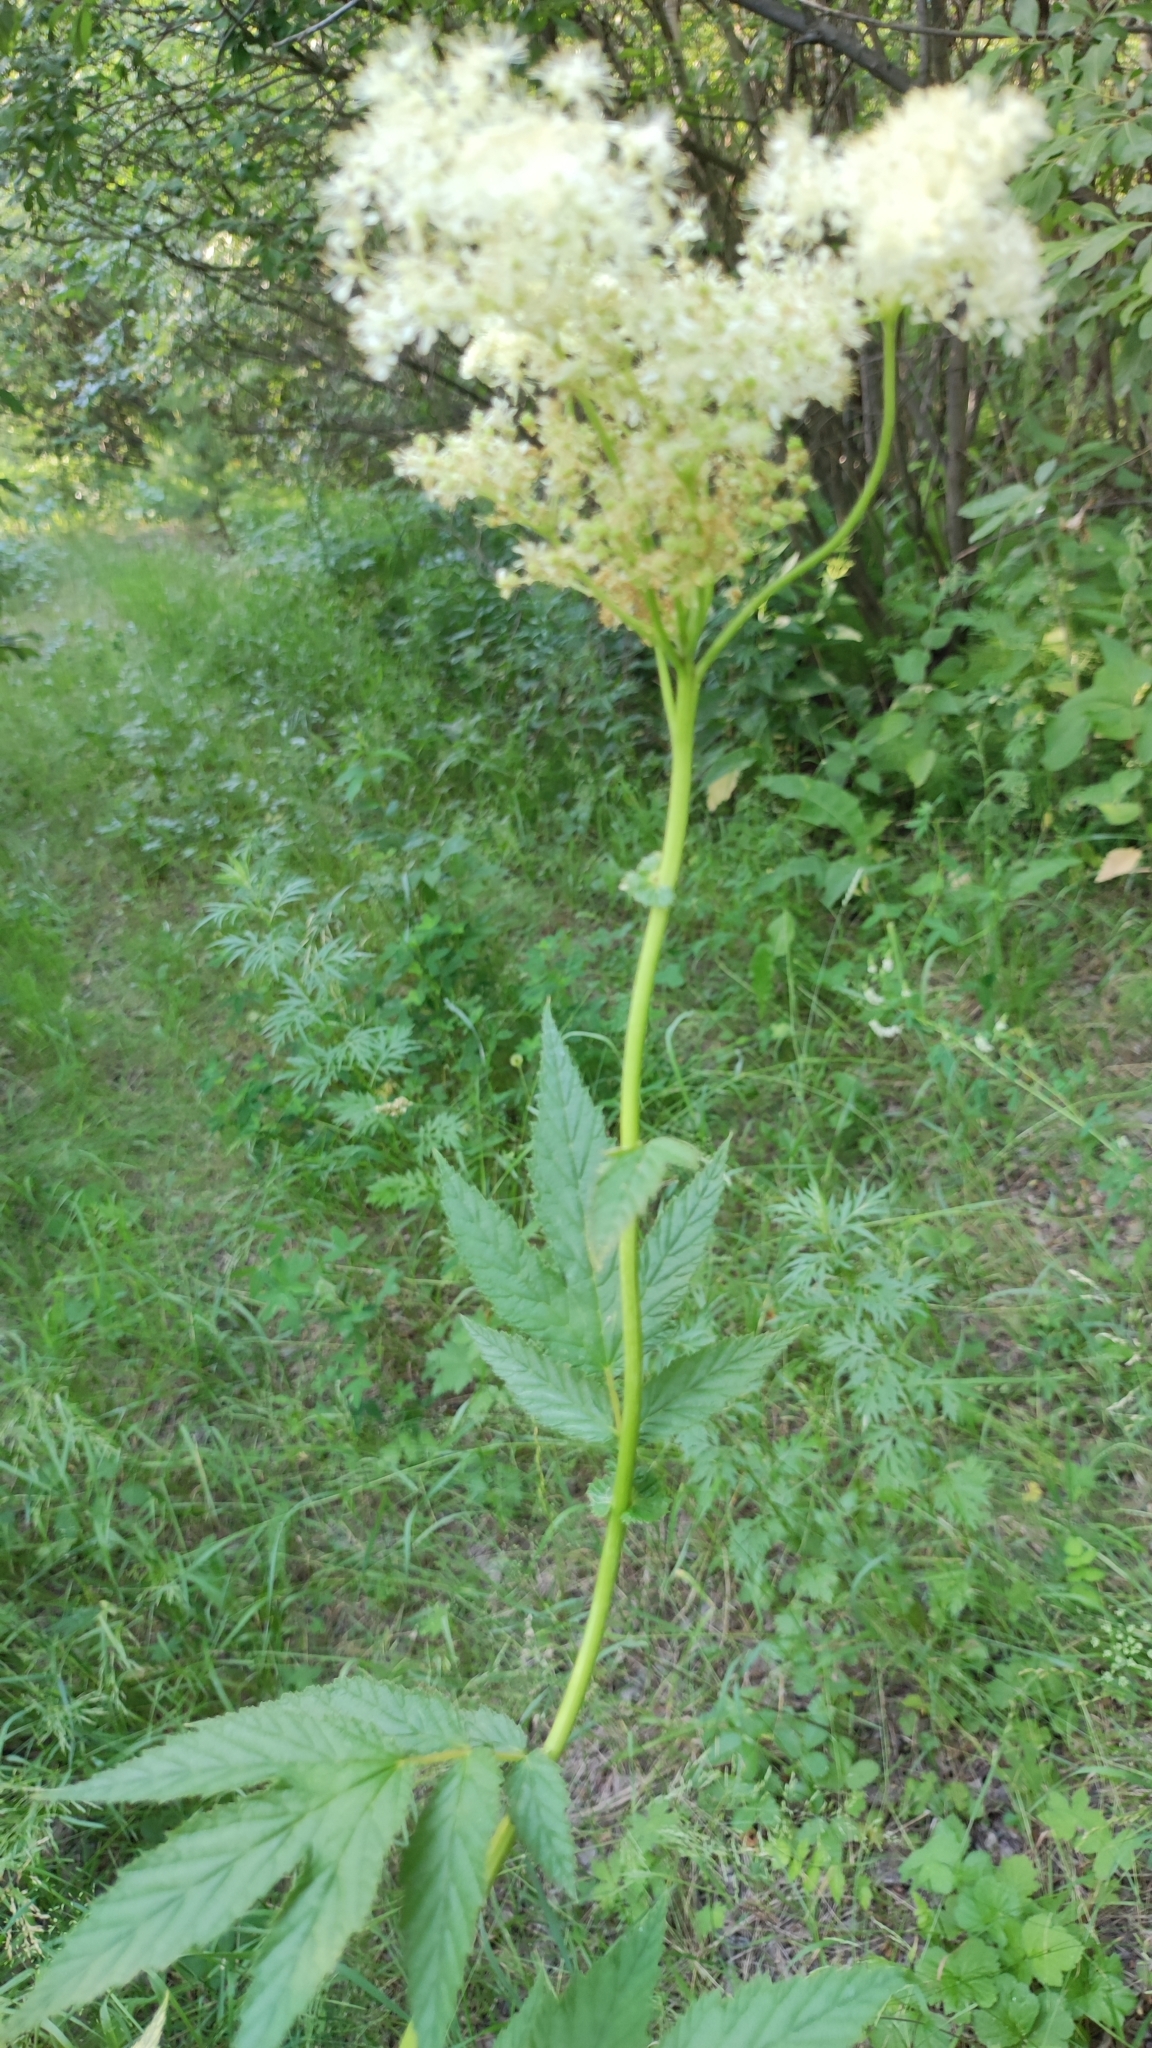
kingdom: Plantae
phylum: Tracheophyta
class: Magnoliopsida
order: Rosales
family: Rosaceae
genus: Filipendula
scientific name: Filipendula ulmaria
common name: Meadowsweet
